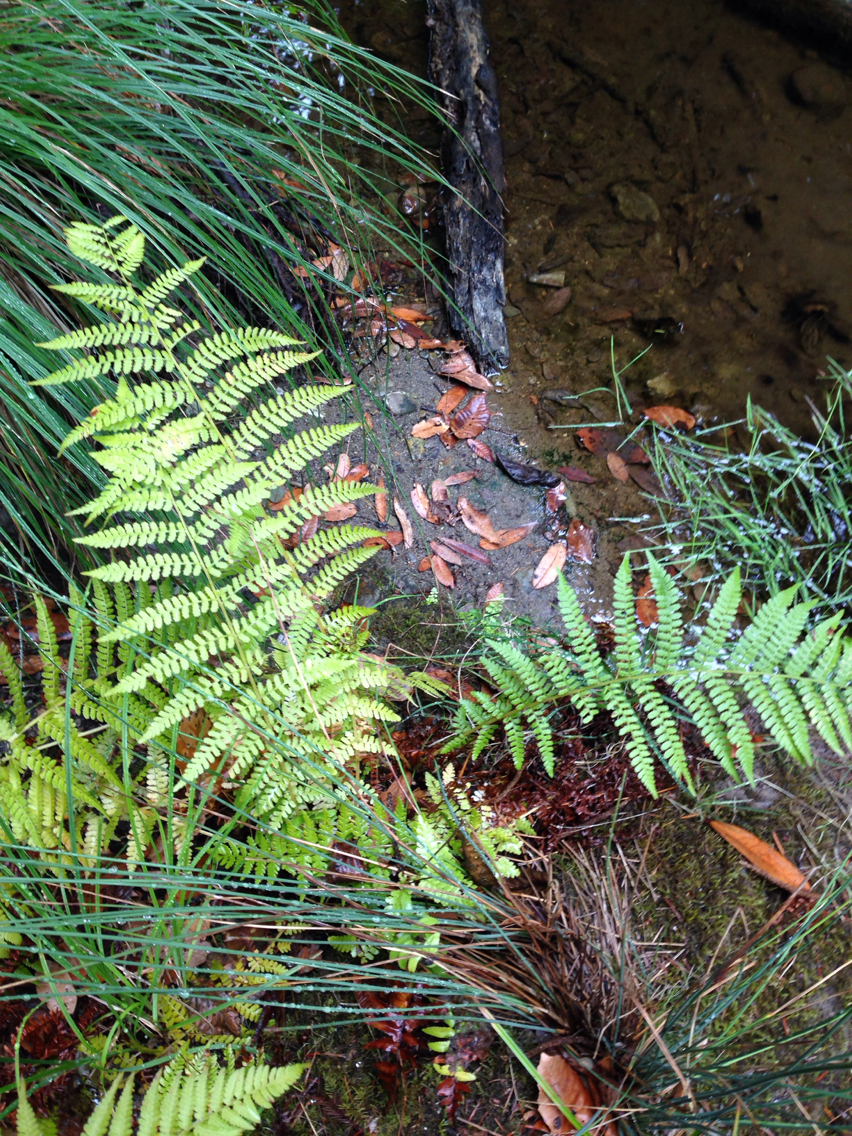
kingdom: Plantae
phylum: Tracheophyta
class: Polypodiopsida
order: Polypodiales
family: Athyriaceae
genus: Athyrium
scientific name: Athyrium filix-femina
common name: Lady fern
